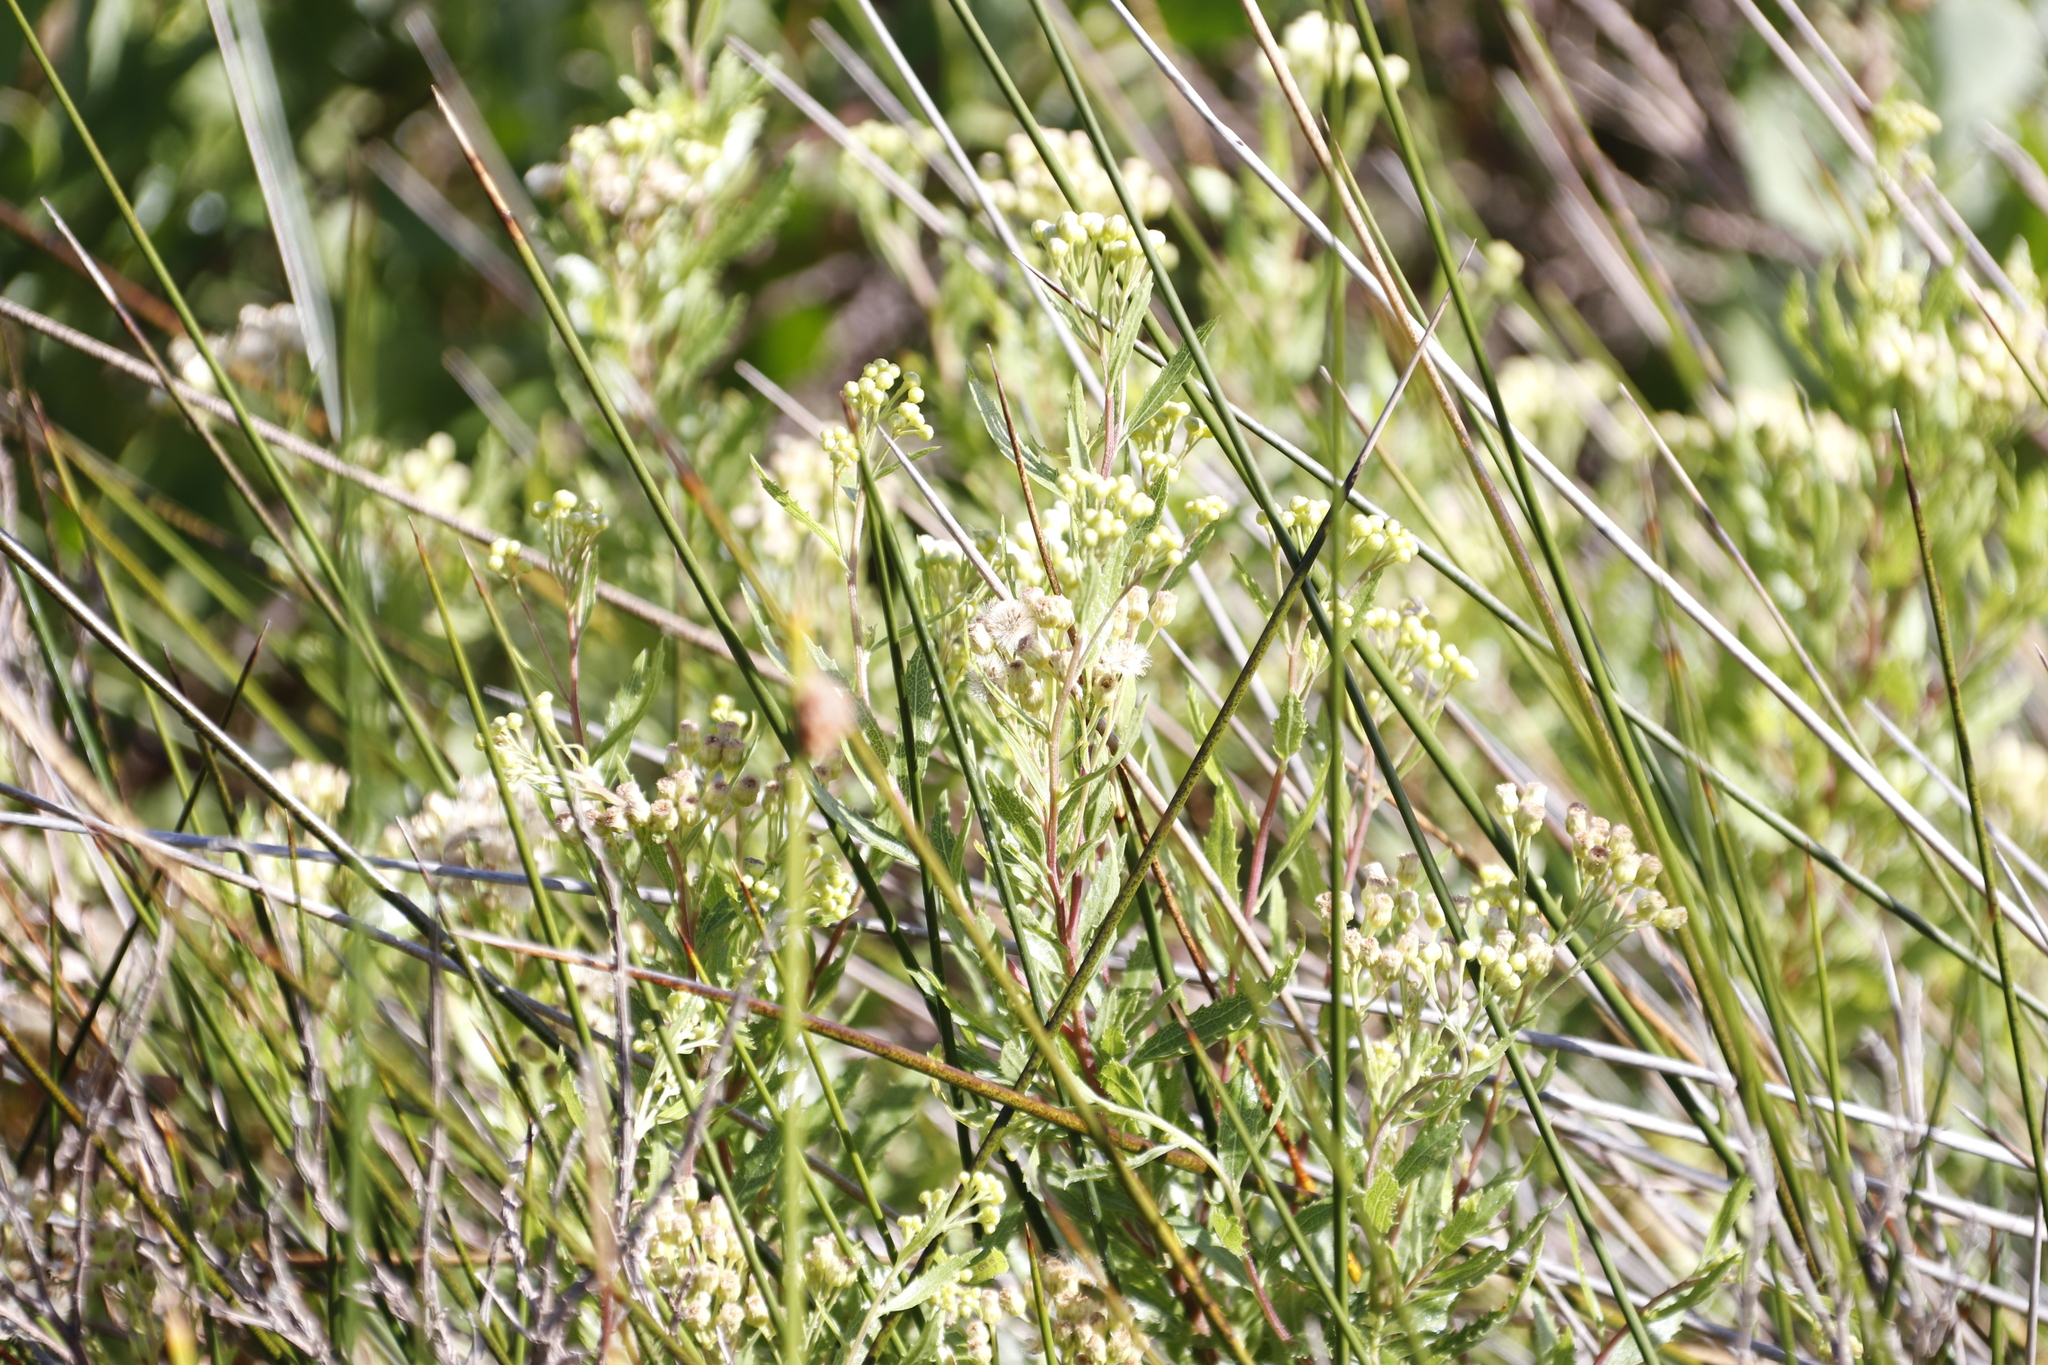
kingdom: Plantae
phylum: Tracheophyta
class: Magnoliopsida
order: Asterales
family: Asteraceae
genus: Nidorella
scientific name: Nidorella ivifolia
